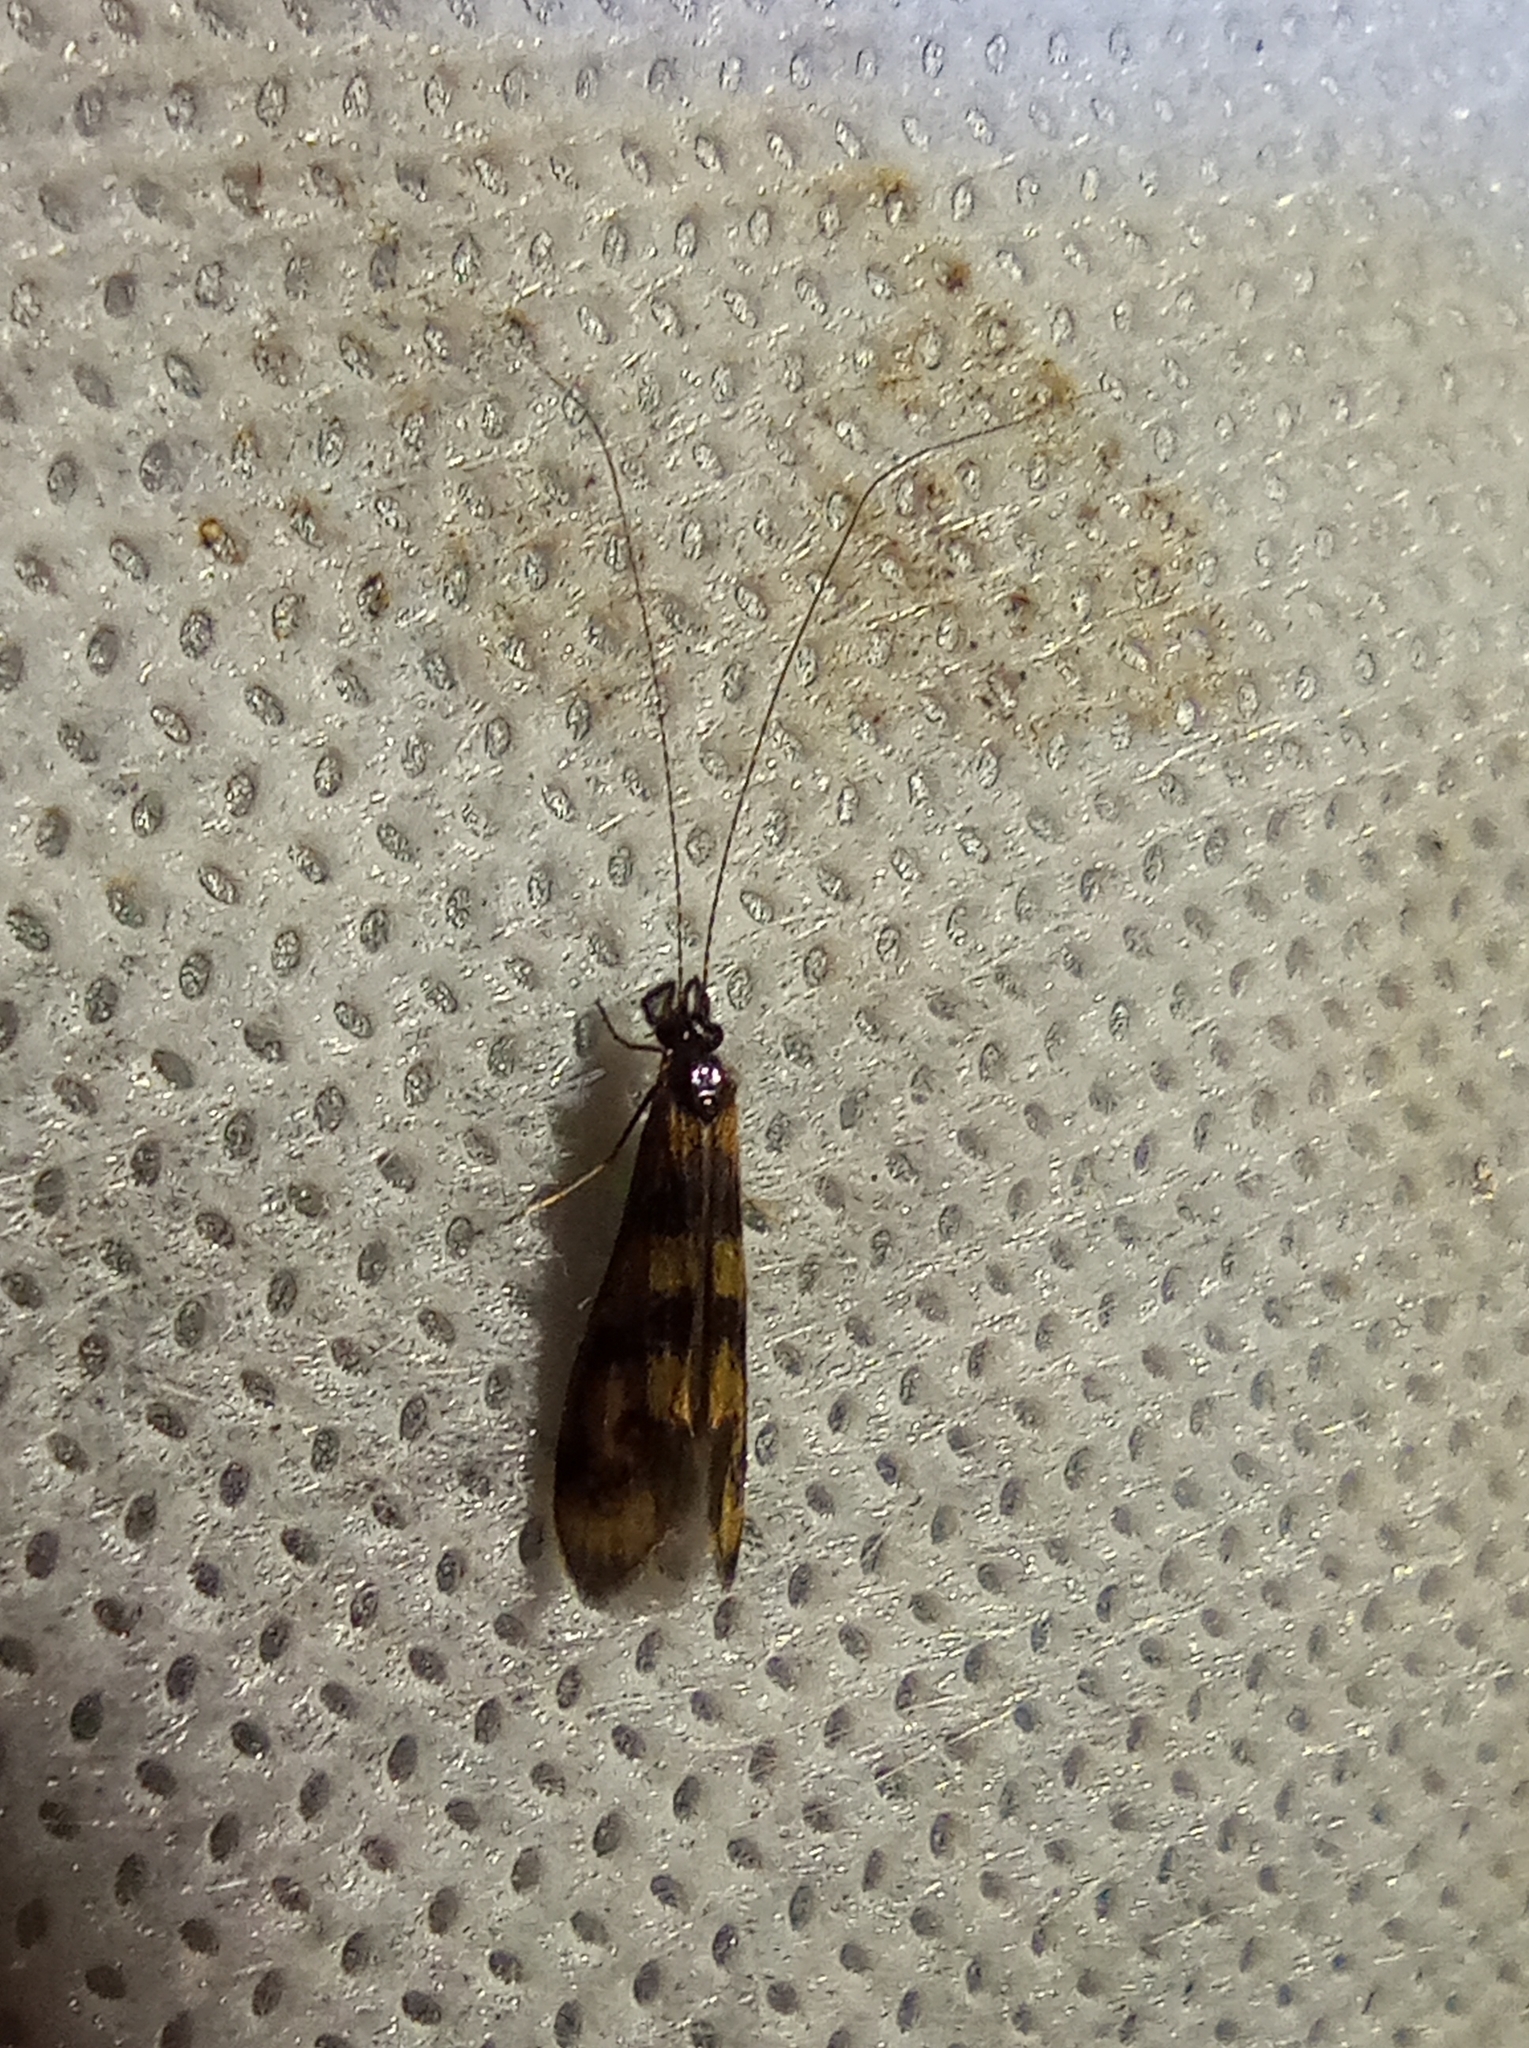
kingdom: Animalia
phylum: Arthropoda
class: Insecta
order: Trichoptera
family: Leptoceridae
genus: Mystacides
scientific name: Mystacides longicornis
